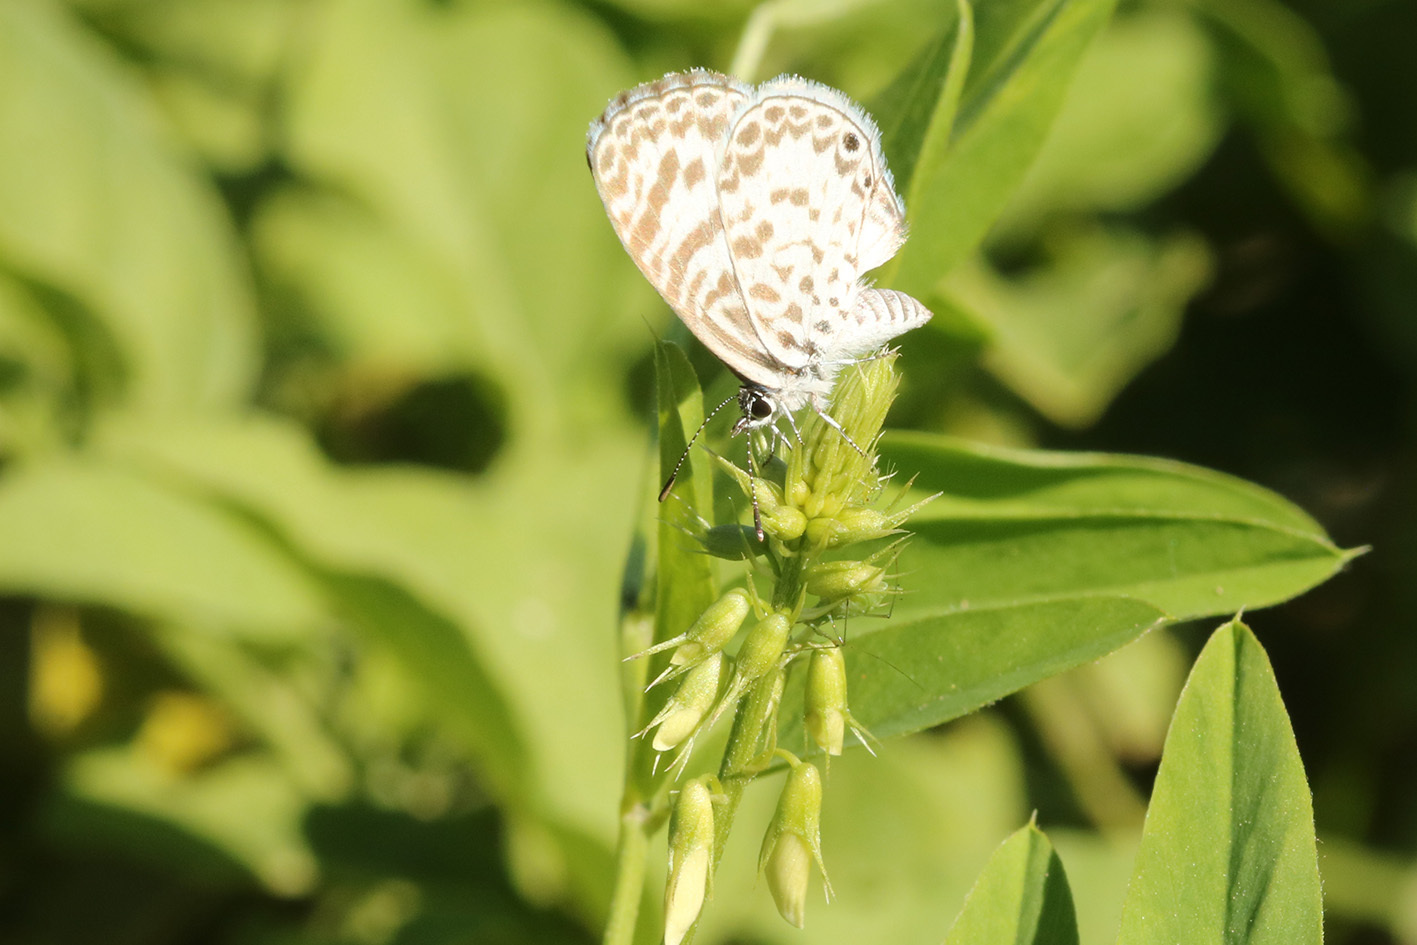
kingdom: Animalia
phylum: Arthropoda
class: Insecta
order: Lepidoptera
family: Lycaenidae
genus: Leptotes
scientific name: Leptotes cassius
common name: Cassius blue
